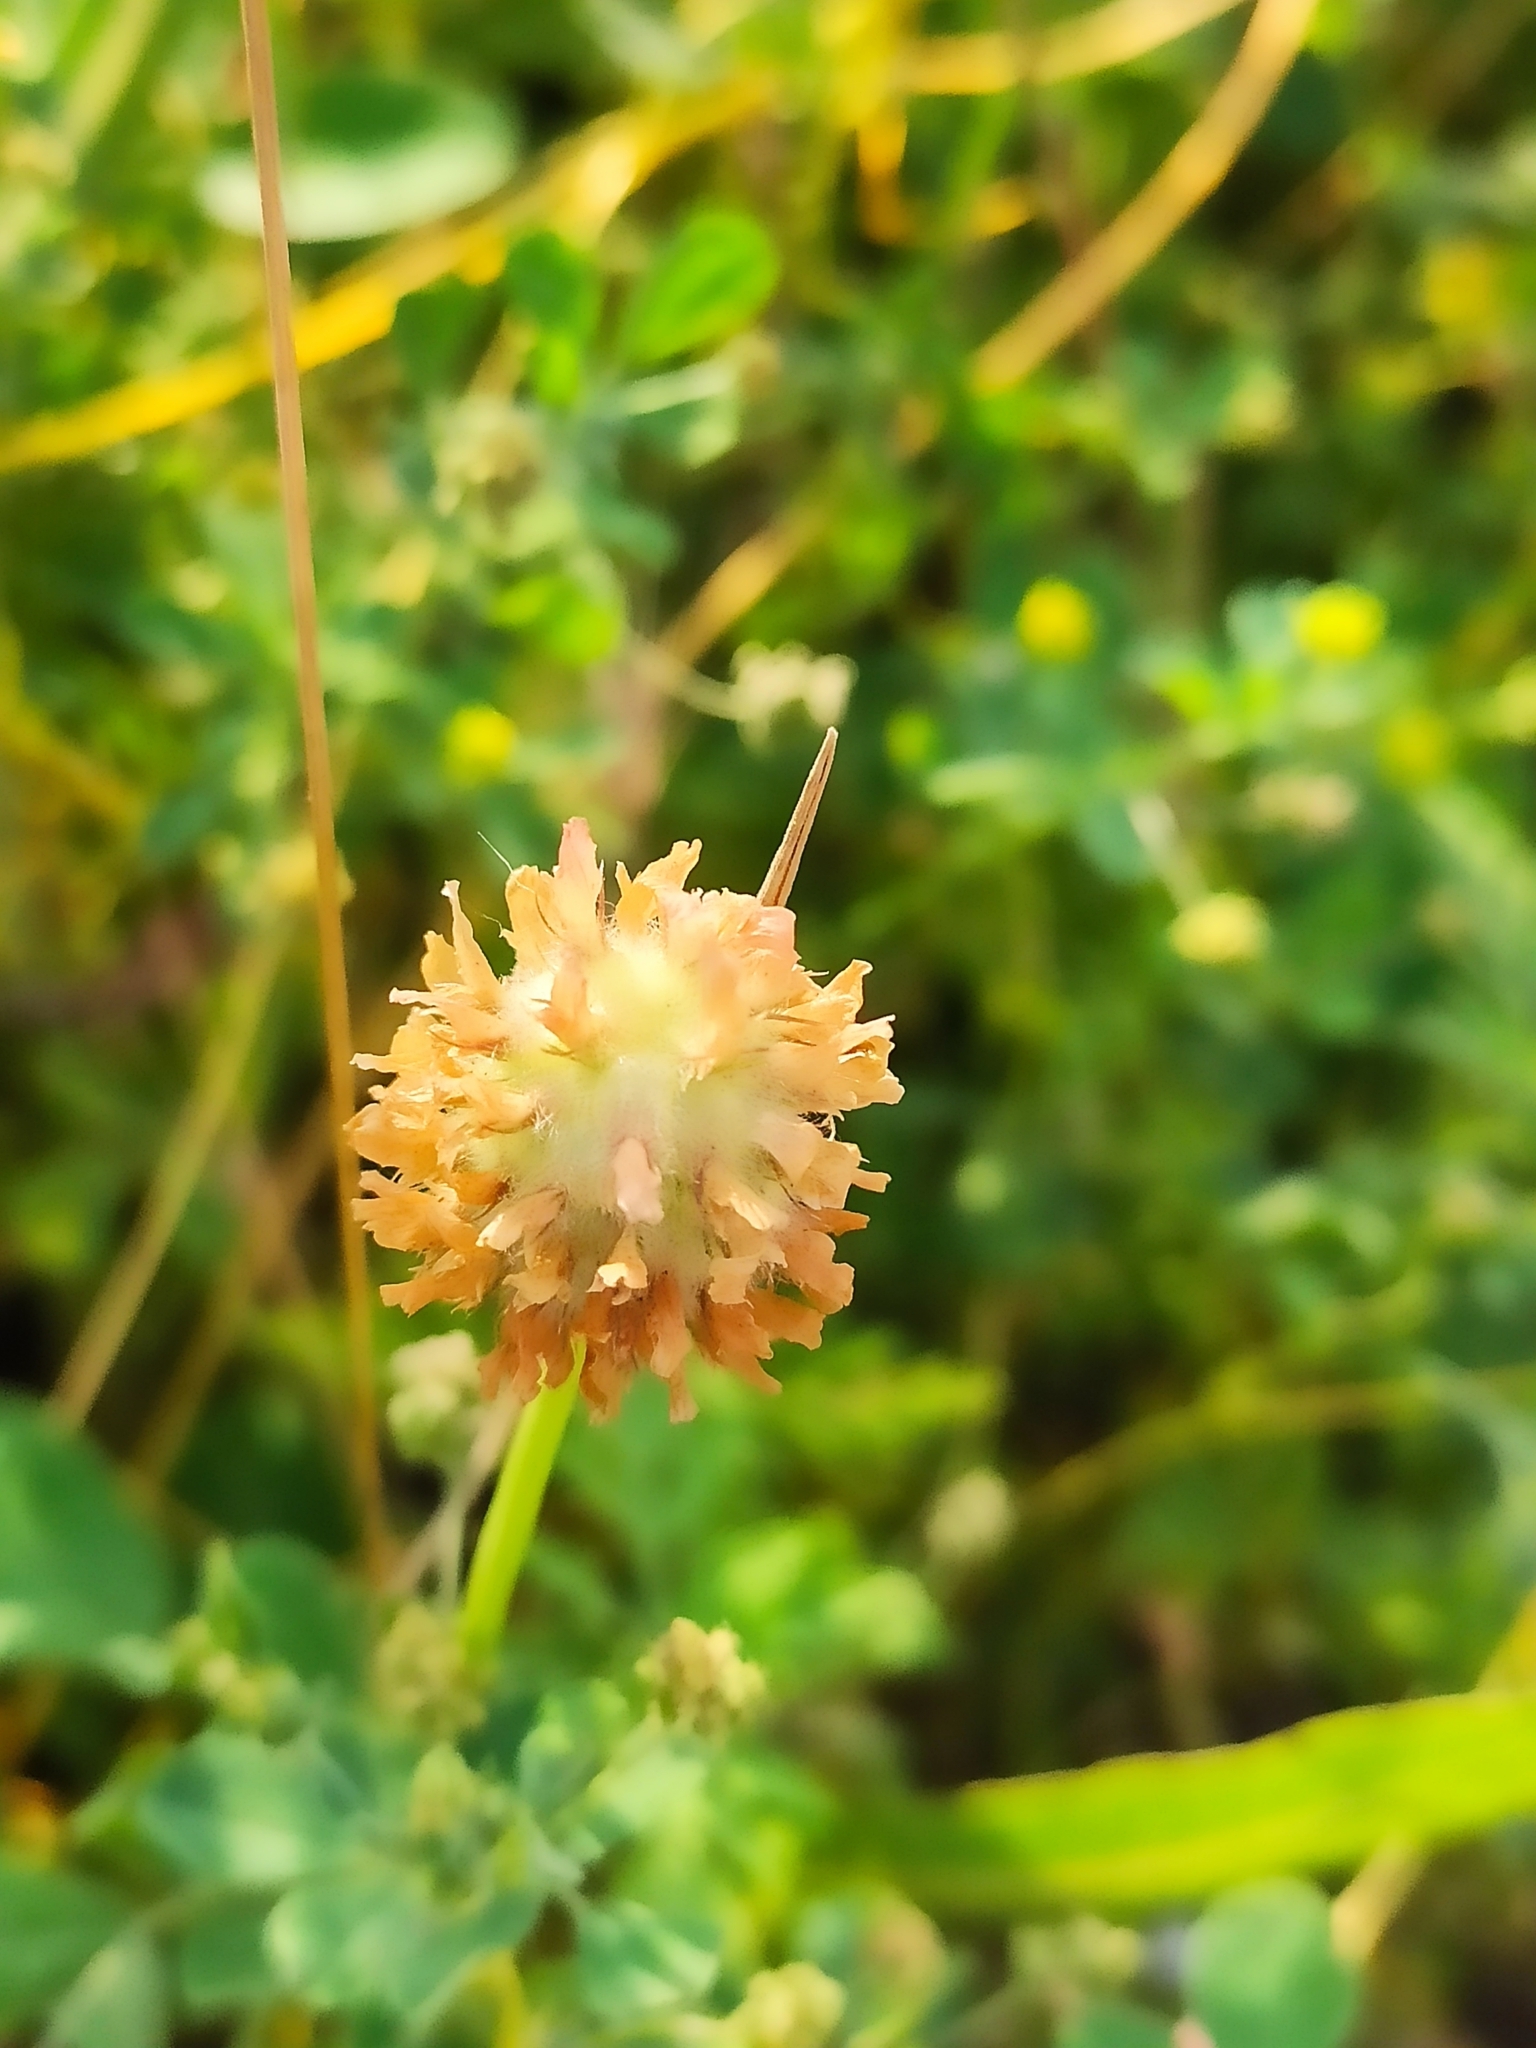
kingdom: Plantae
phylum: Tracheophyta
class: Magnoliopsida
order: Fabales
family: Fabaceae
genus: Trifolium
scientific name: Trifolium fragiferum
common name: Strawberry clover
